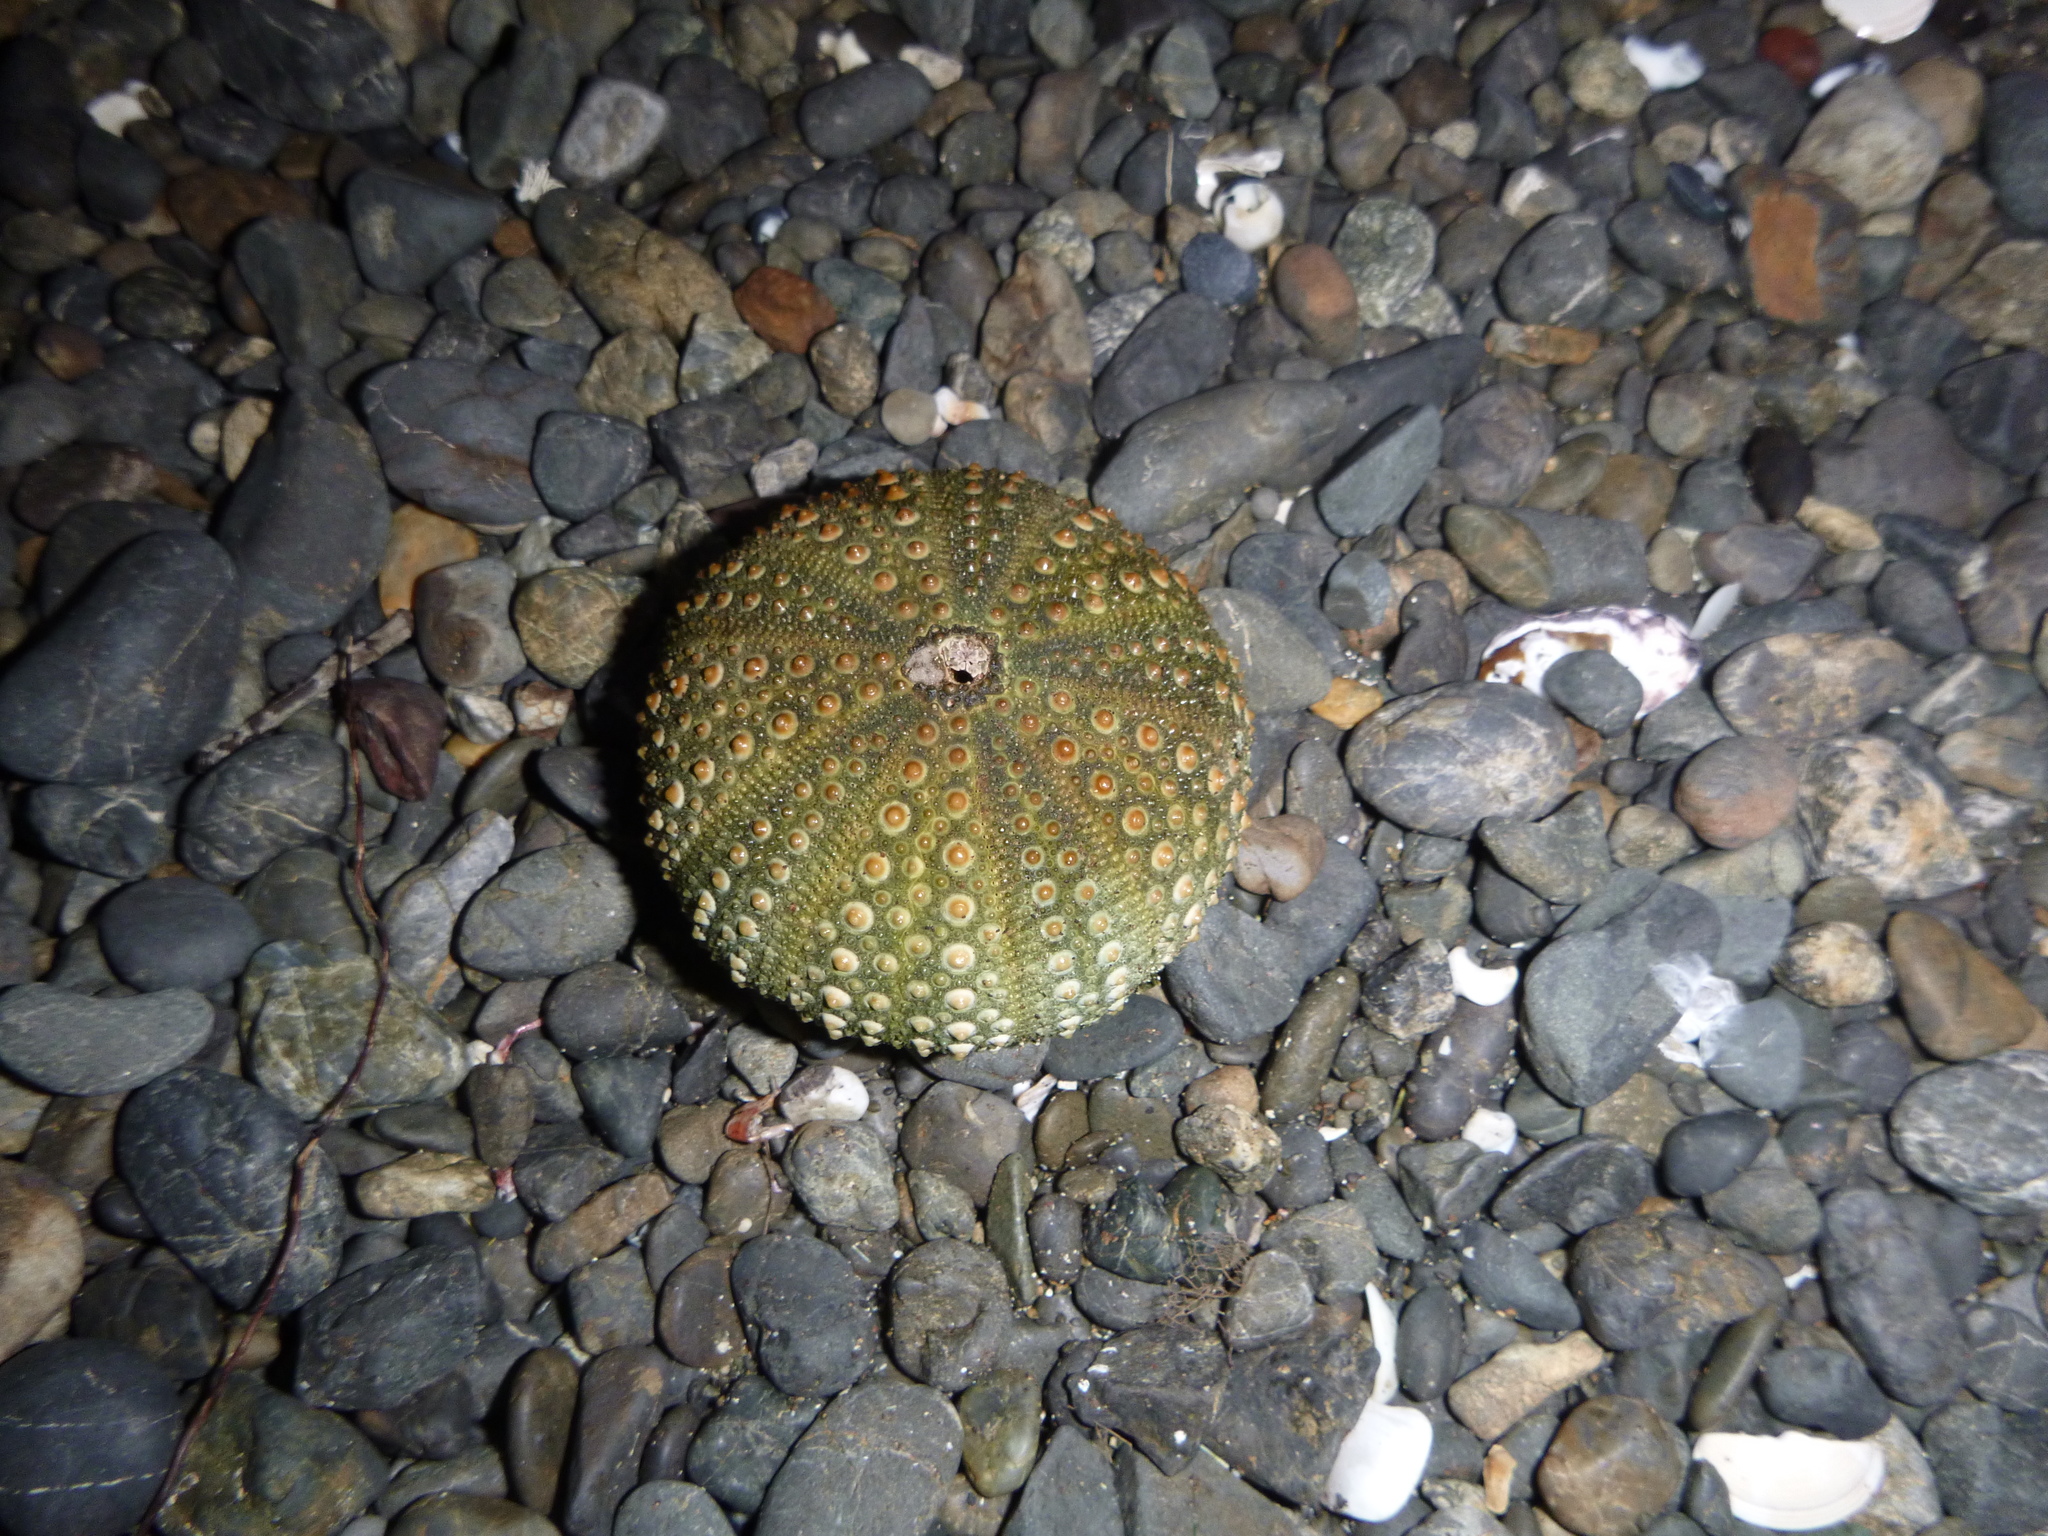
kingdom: Animalia
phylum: Echinodermata
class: Echinoidea
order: Camarodonta
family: Echinometridae
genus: Evechinus
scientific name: Evechinus chloroticus
